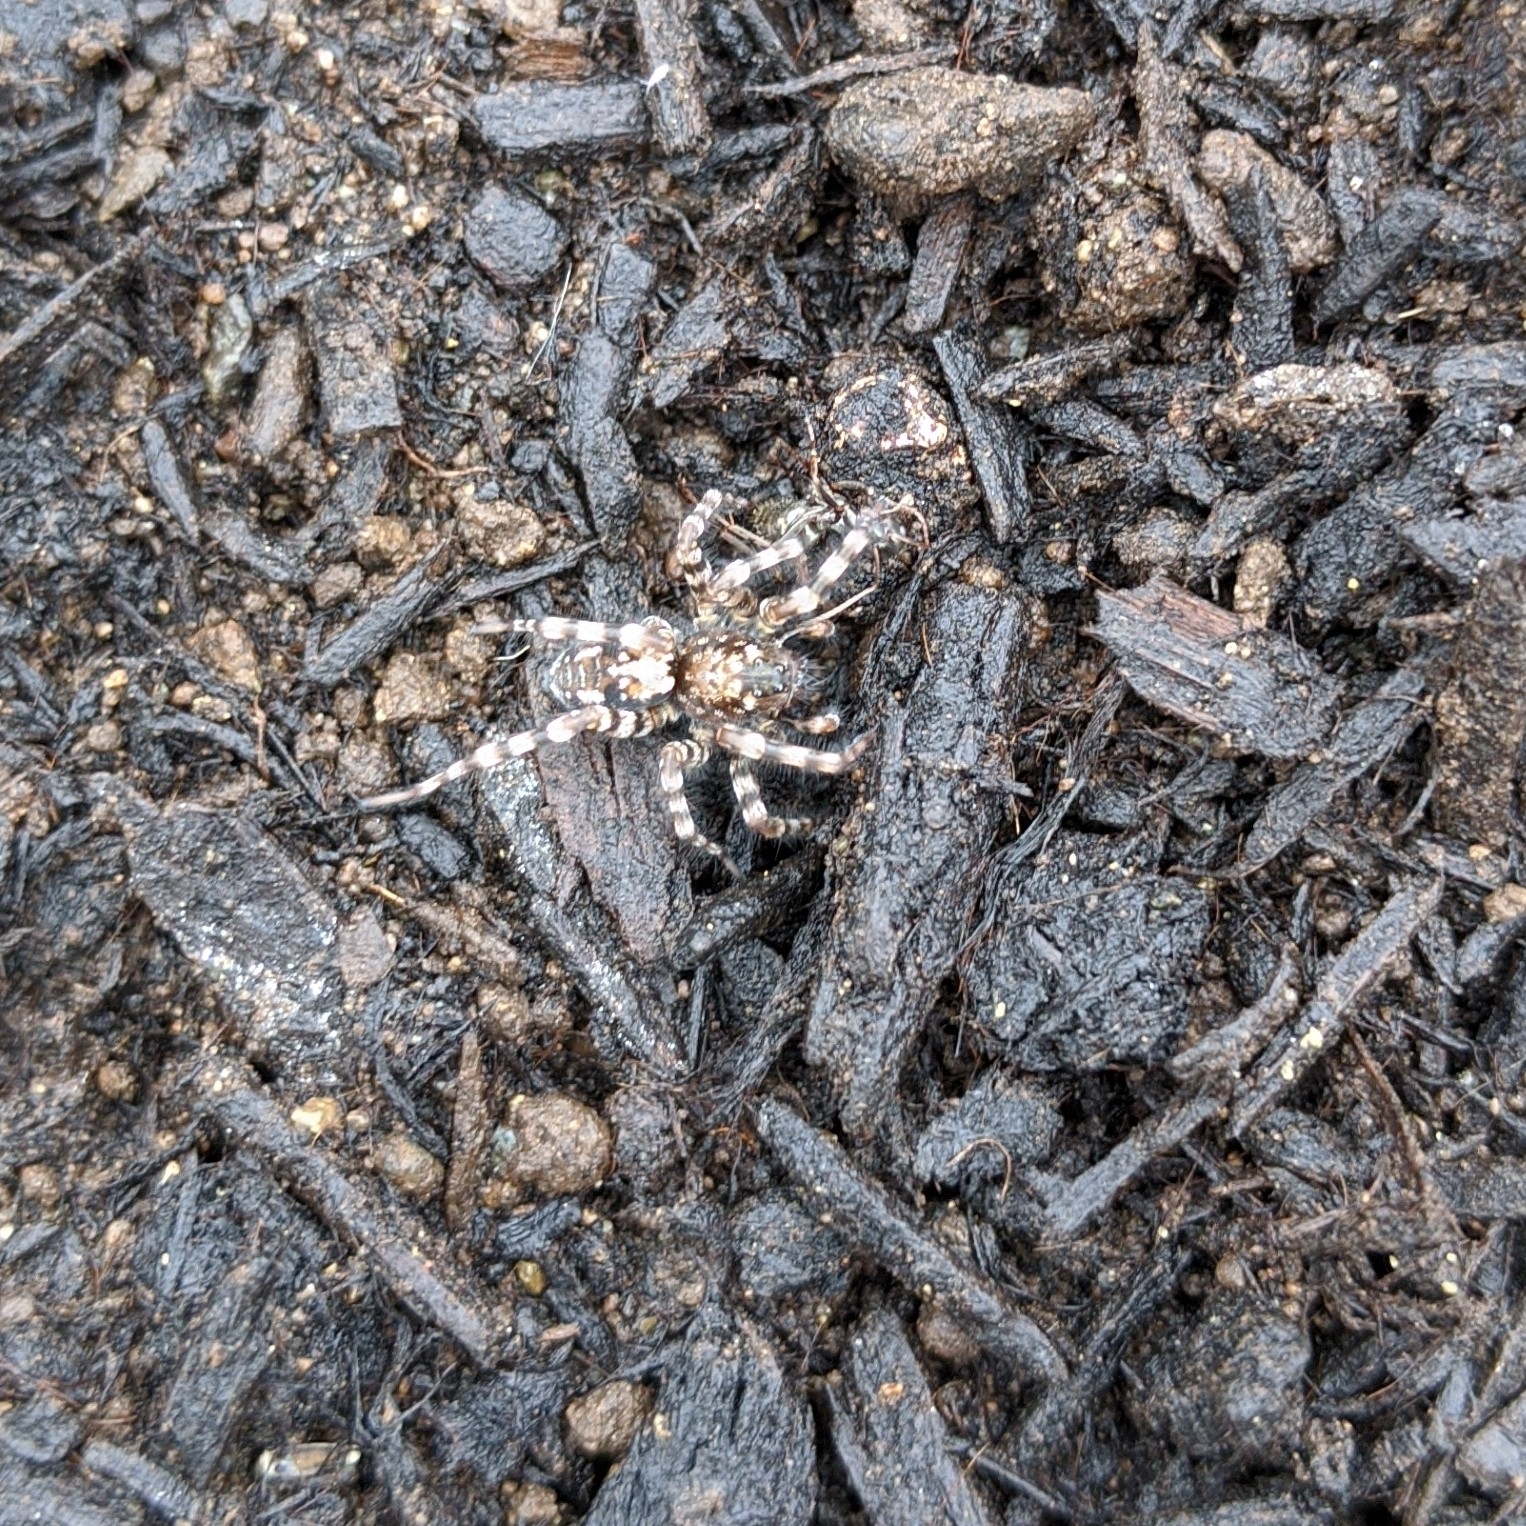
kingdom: Animalia
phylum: Arthropoda
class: Arachnida
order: Araneae
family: Lycosidae
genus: Arctosa
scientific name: Arctosa perita
